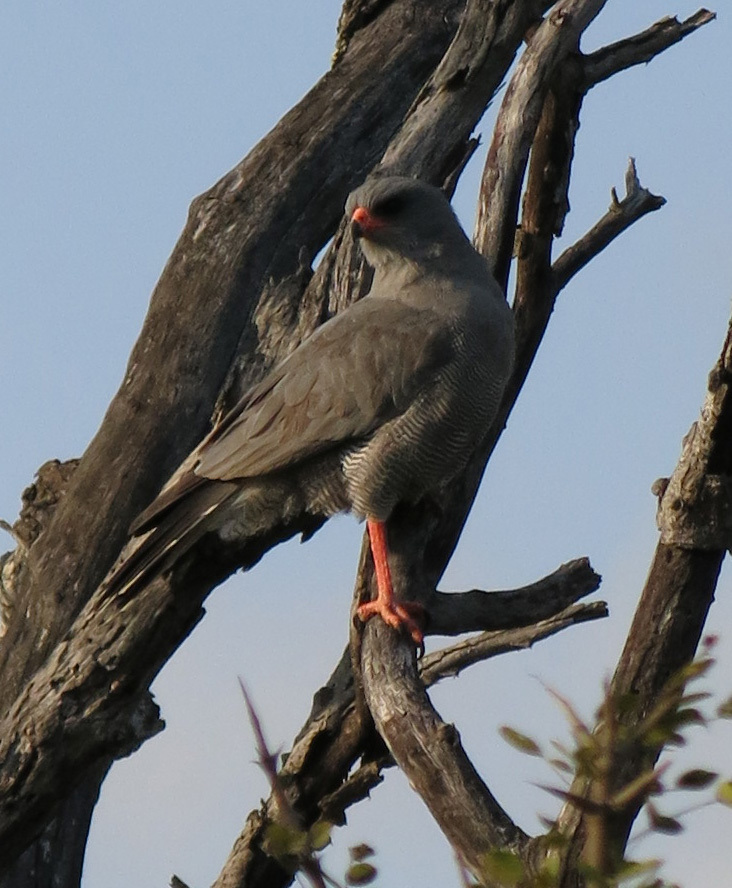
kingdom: Animalia
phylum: Chordata
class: Aves
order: Accipitriformes
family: Accipitridae
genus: Melierax
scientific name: Melierax metabates
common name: Dark chanting-goshawk
